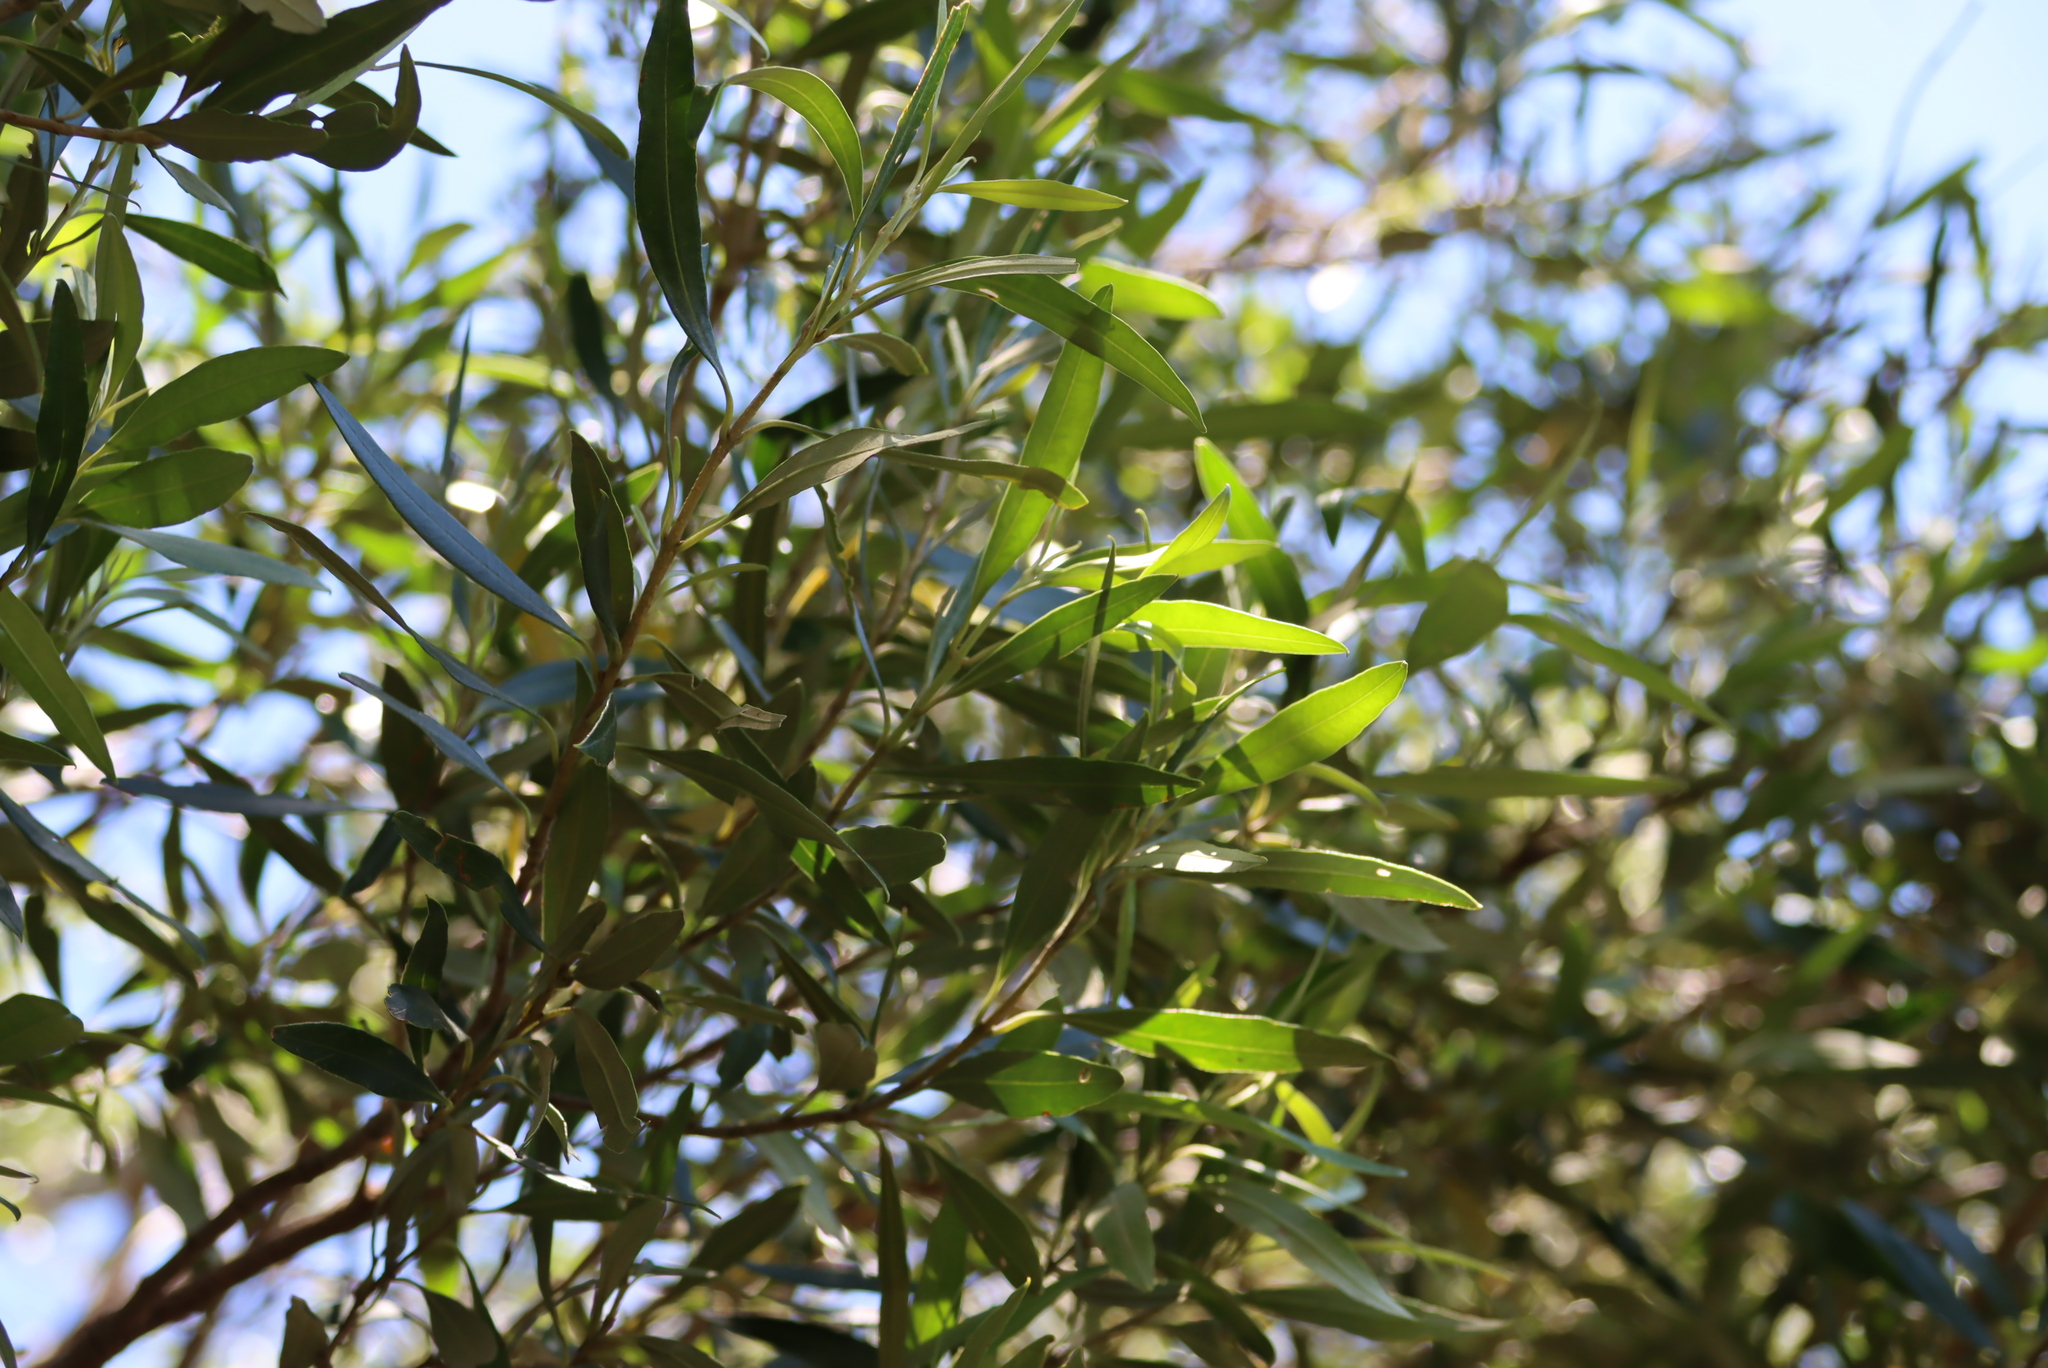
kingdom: Plantae
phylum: Tracheophyta
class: Magnoliopsida
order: Lamiales
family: Oleaceae
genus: Olea
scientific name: Olea europaea
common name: Olive
